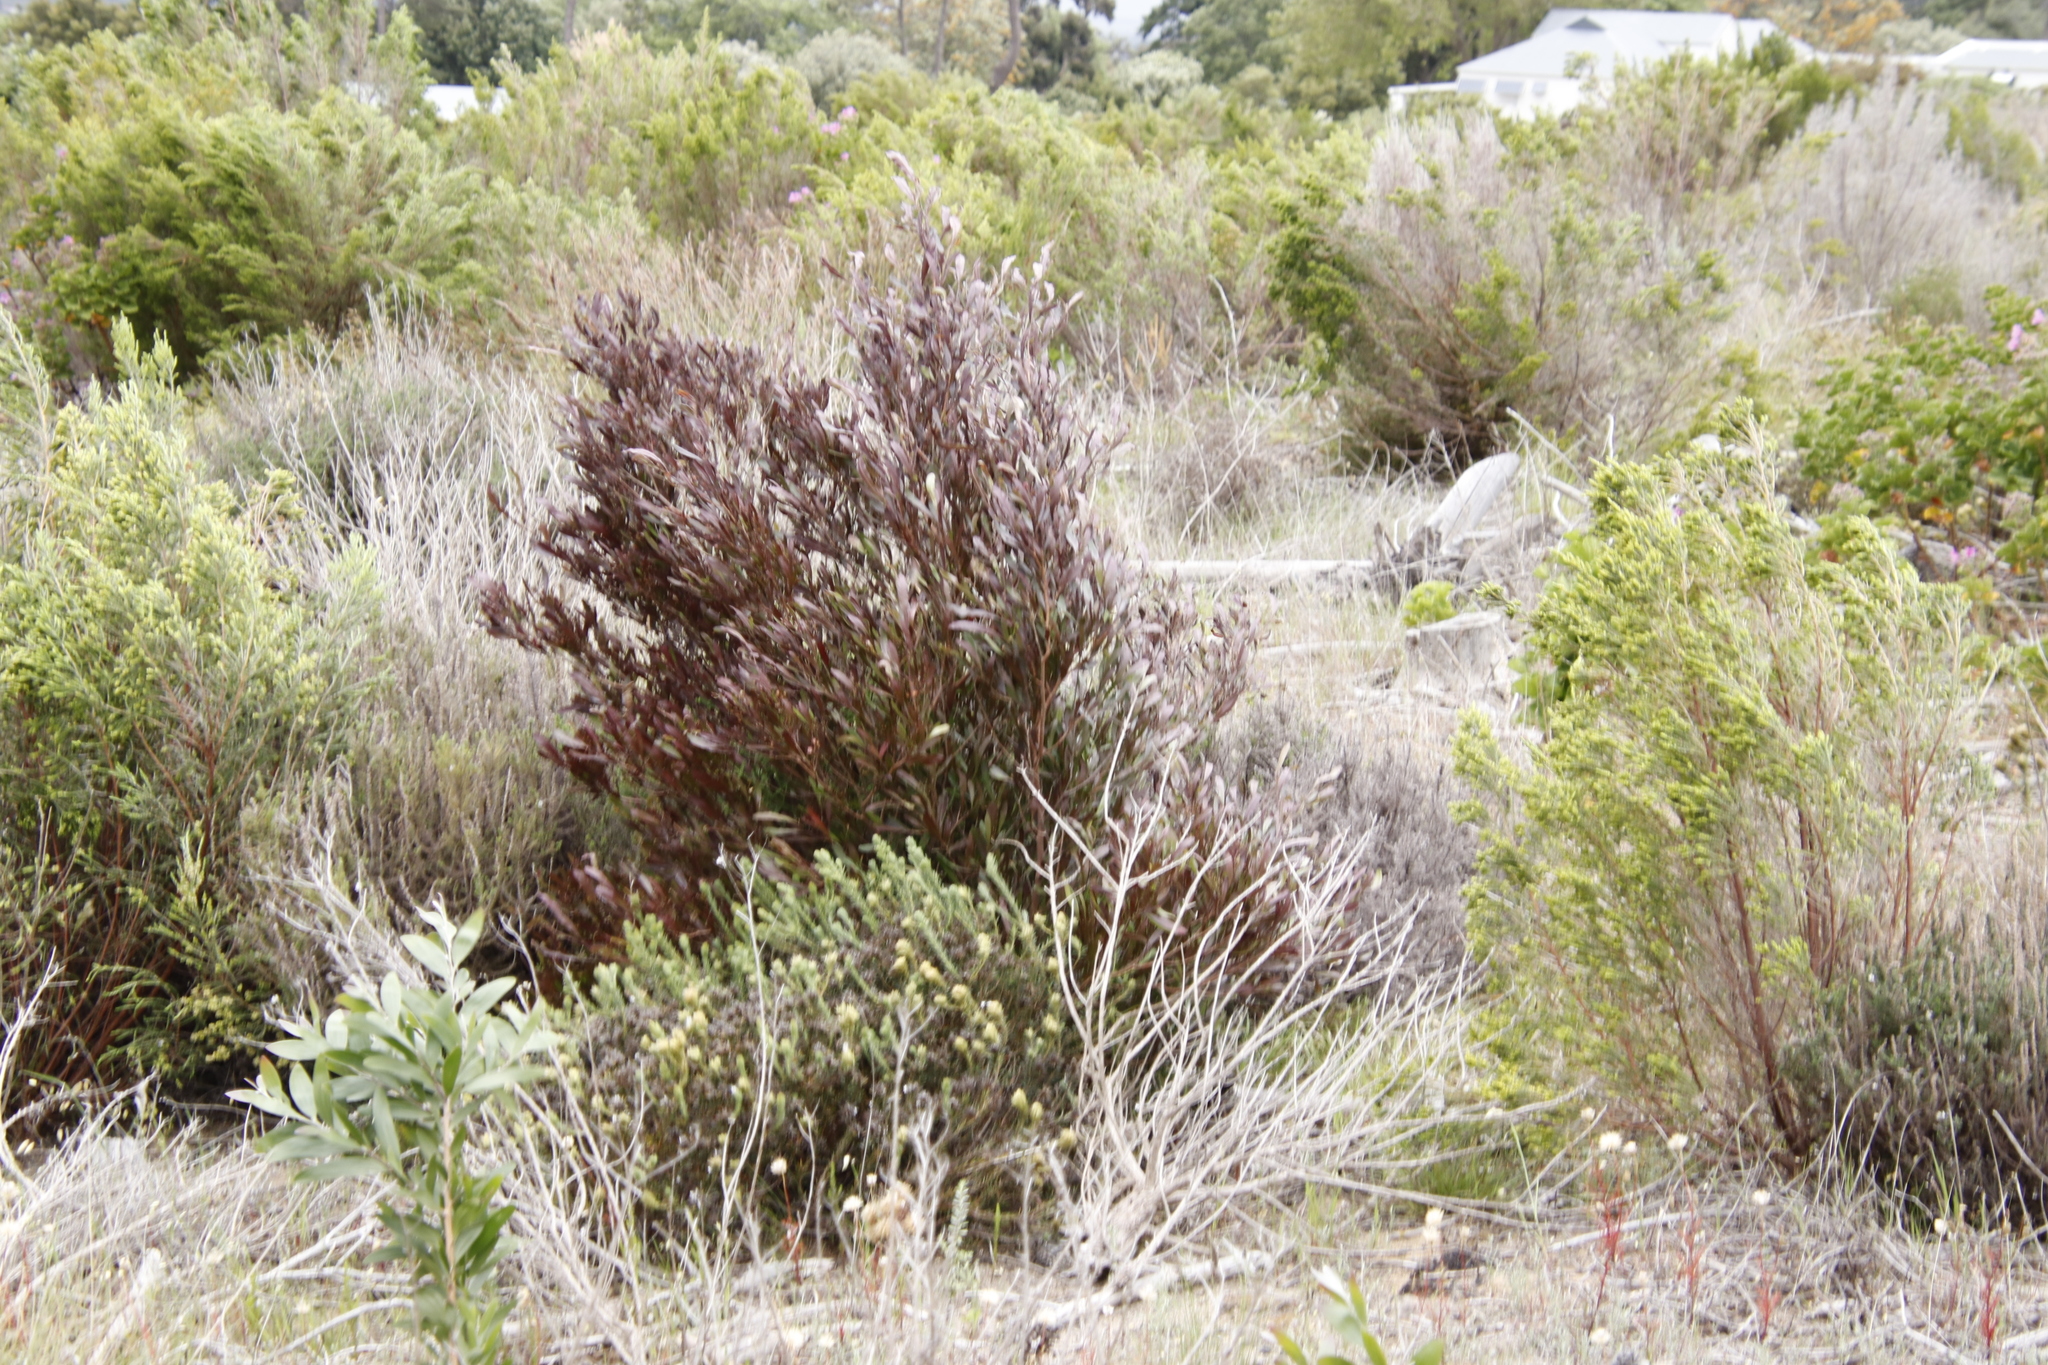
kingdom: Plantae
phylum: Tracheophyta
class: Magnoliopsida
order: Sapindales
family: Sapindaceae
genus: Dodonaea
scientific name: Dodonaea viscosa
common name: Hopbush
